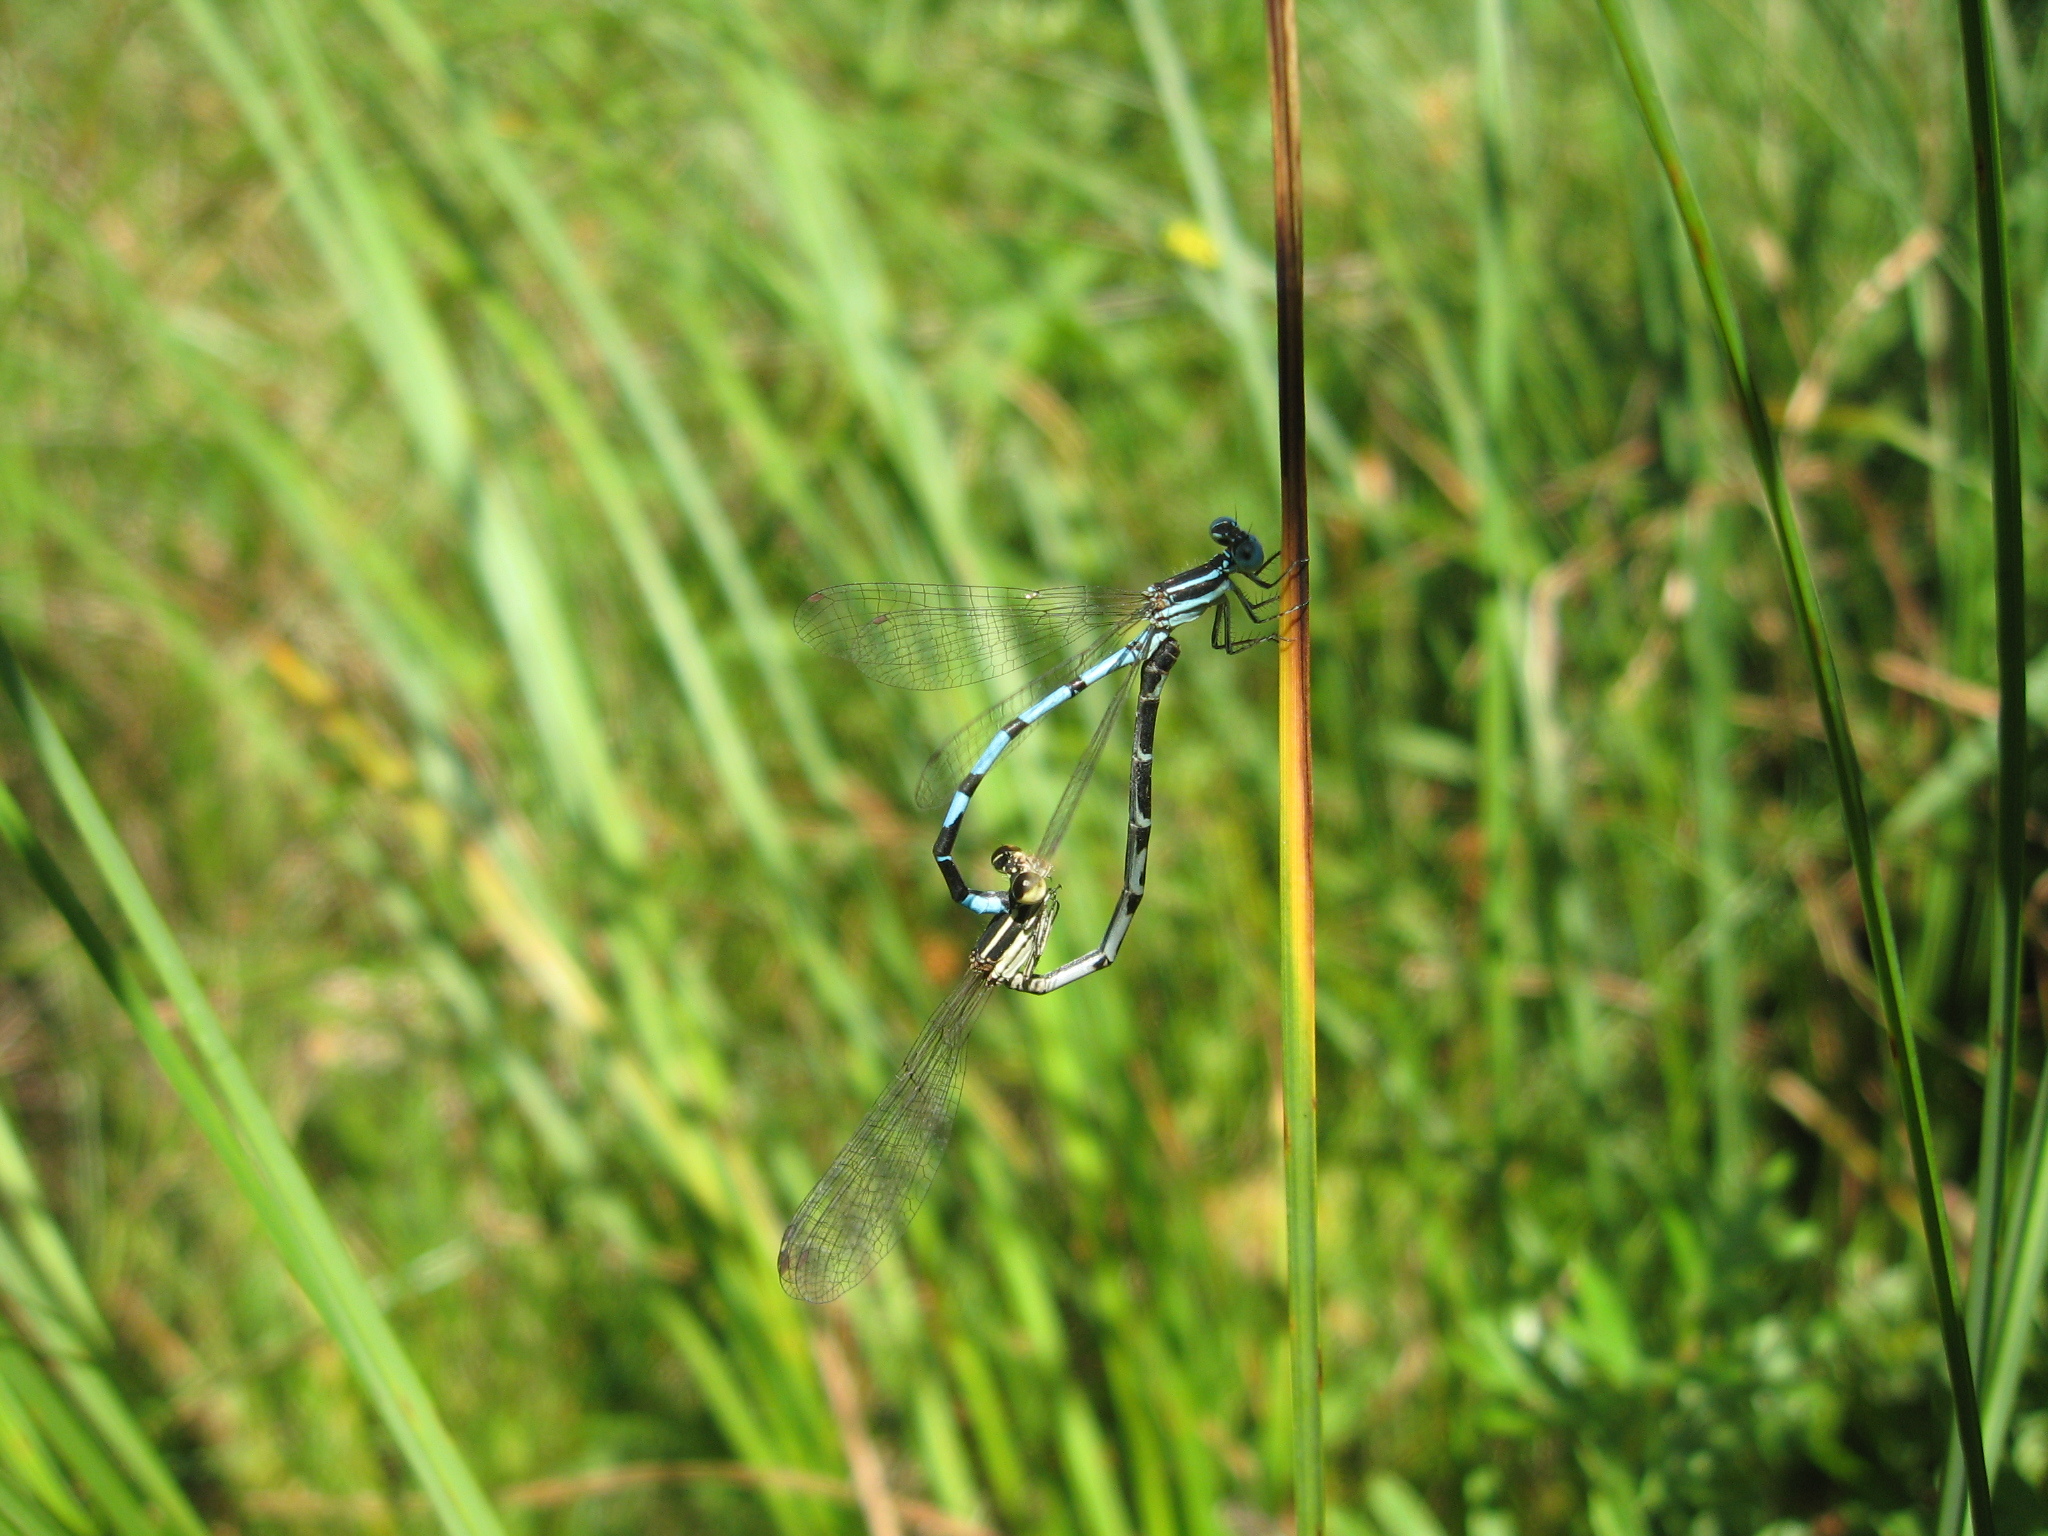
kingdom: Animalia
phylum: Arthropoda
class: Insecta
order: Odonata
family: Coenagrionidae
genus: Argia
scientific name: Argia bipunctulata
